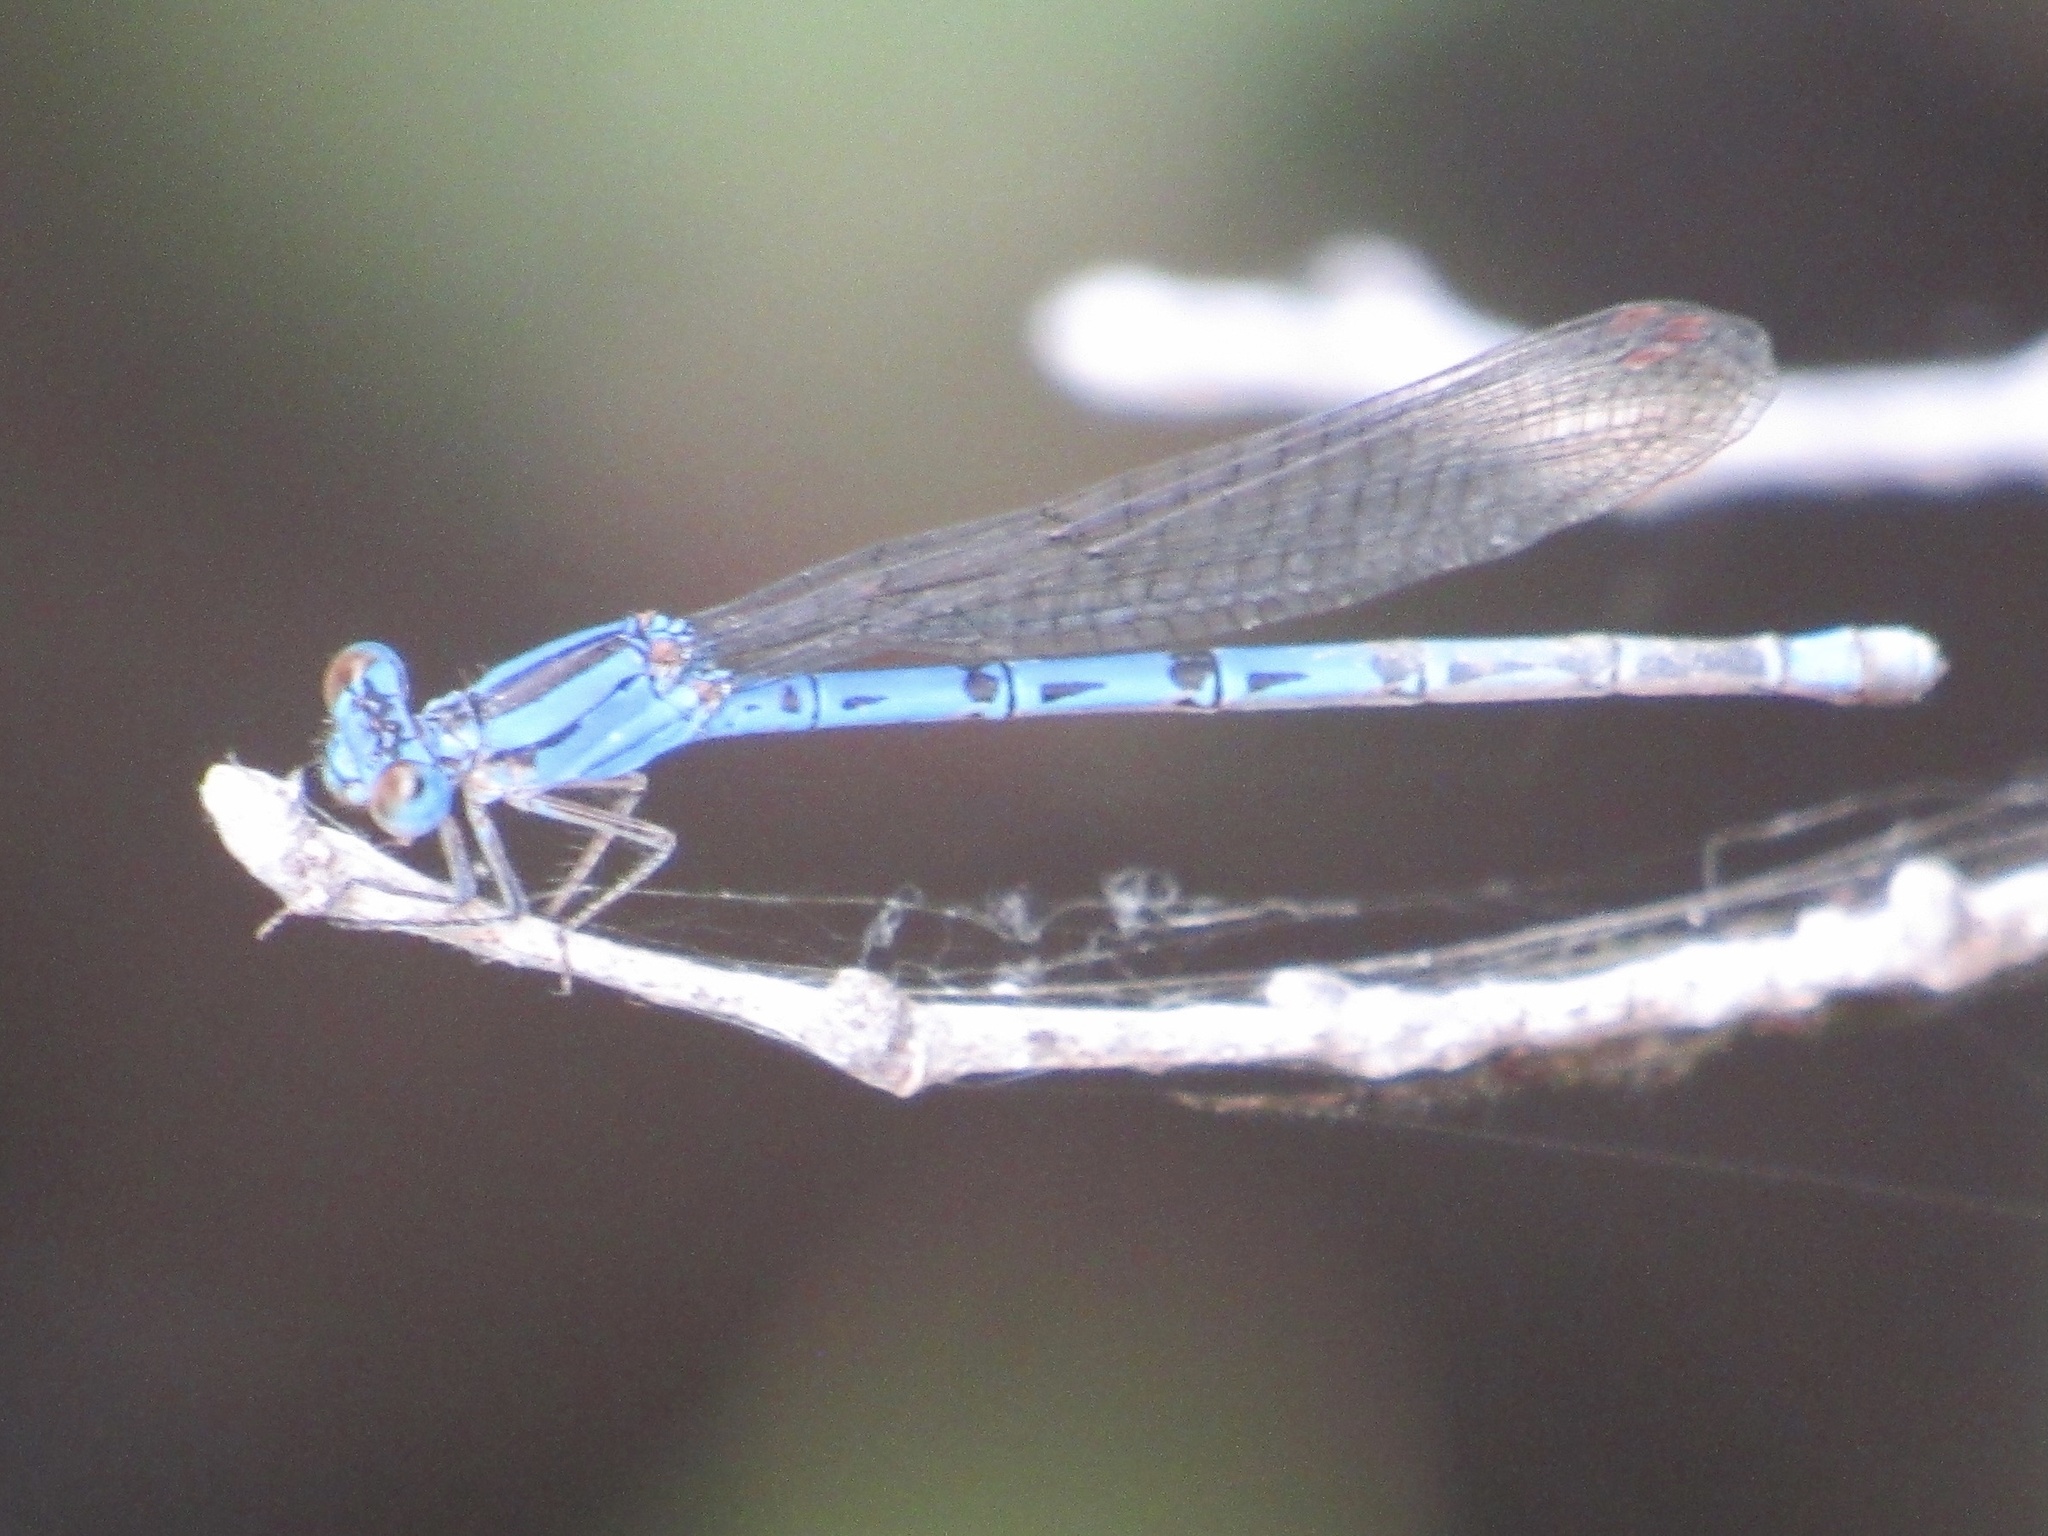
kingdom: Animalia
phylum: Arthropoda
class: Insecta
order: Odonata
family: Coenagrionidae
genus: Argia
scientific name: Argia funebris
